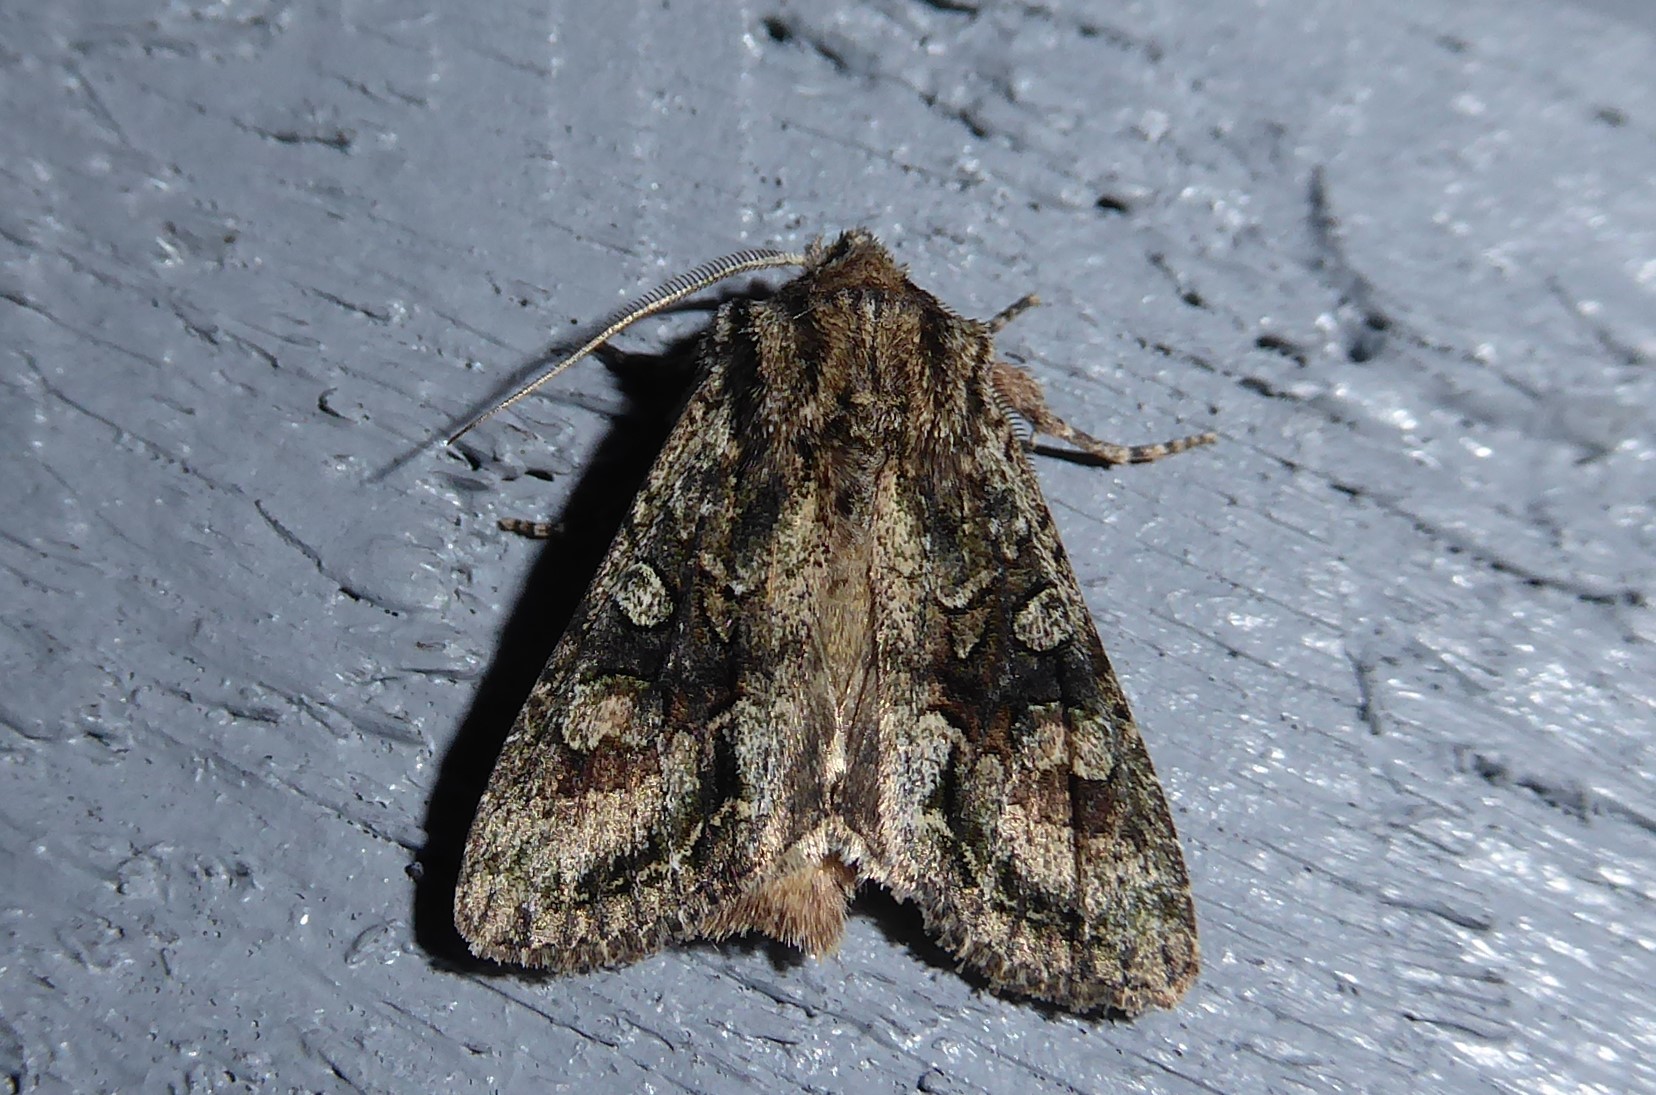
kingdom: Animalia
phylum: Arthropoda
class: Insecta
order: Lepidoptera
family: Noctuidae
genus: Ichneutica
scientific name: Ichneutica mutans
